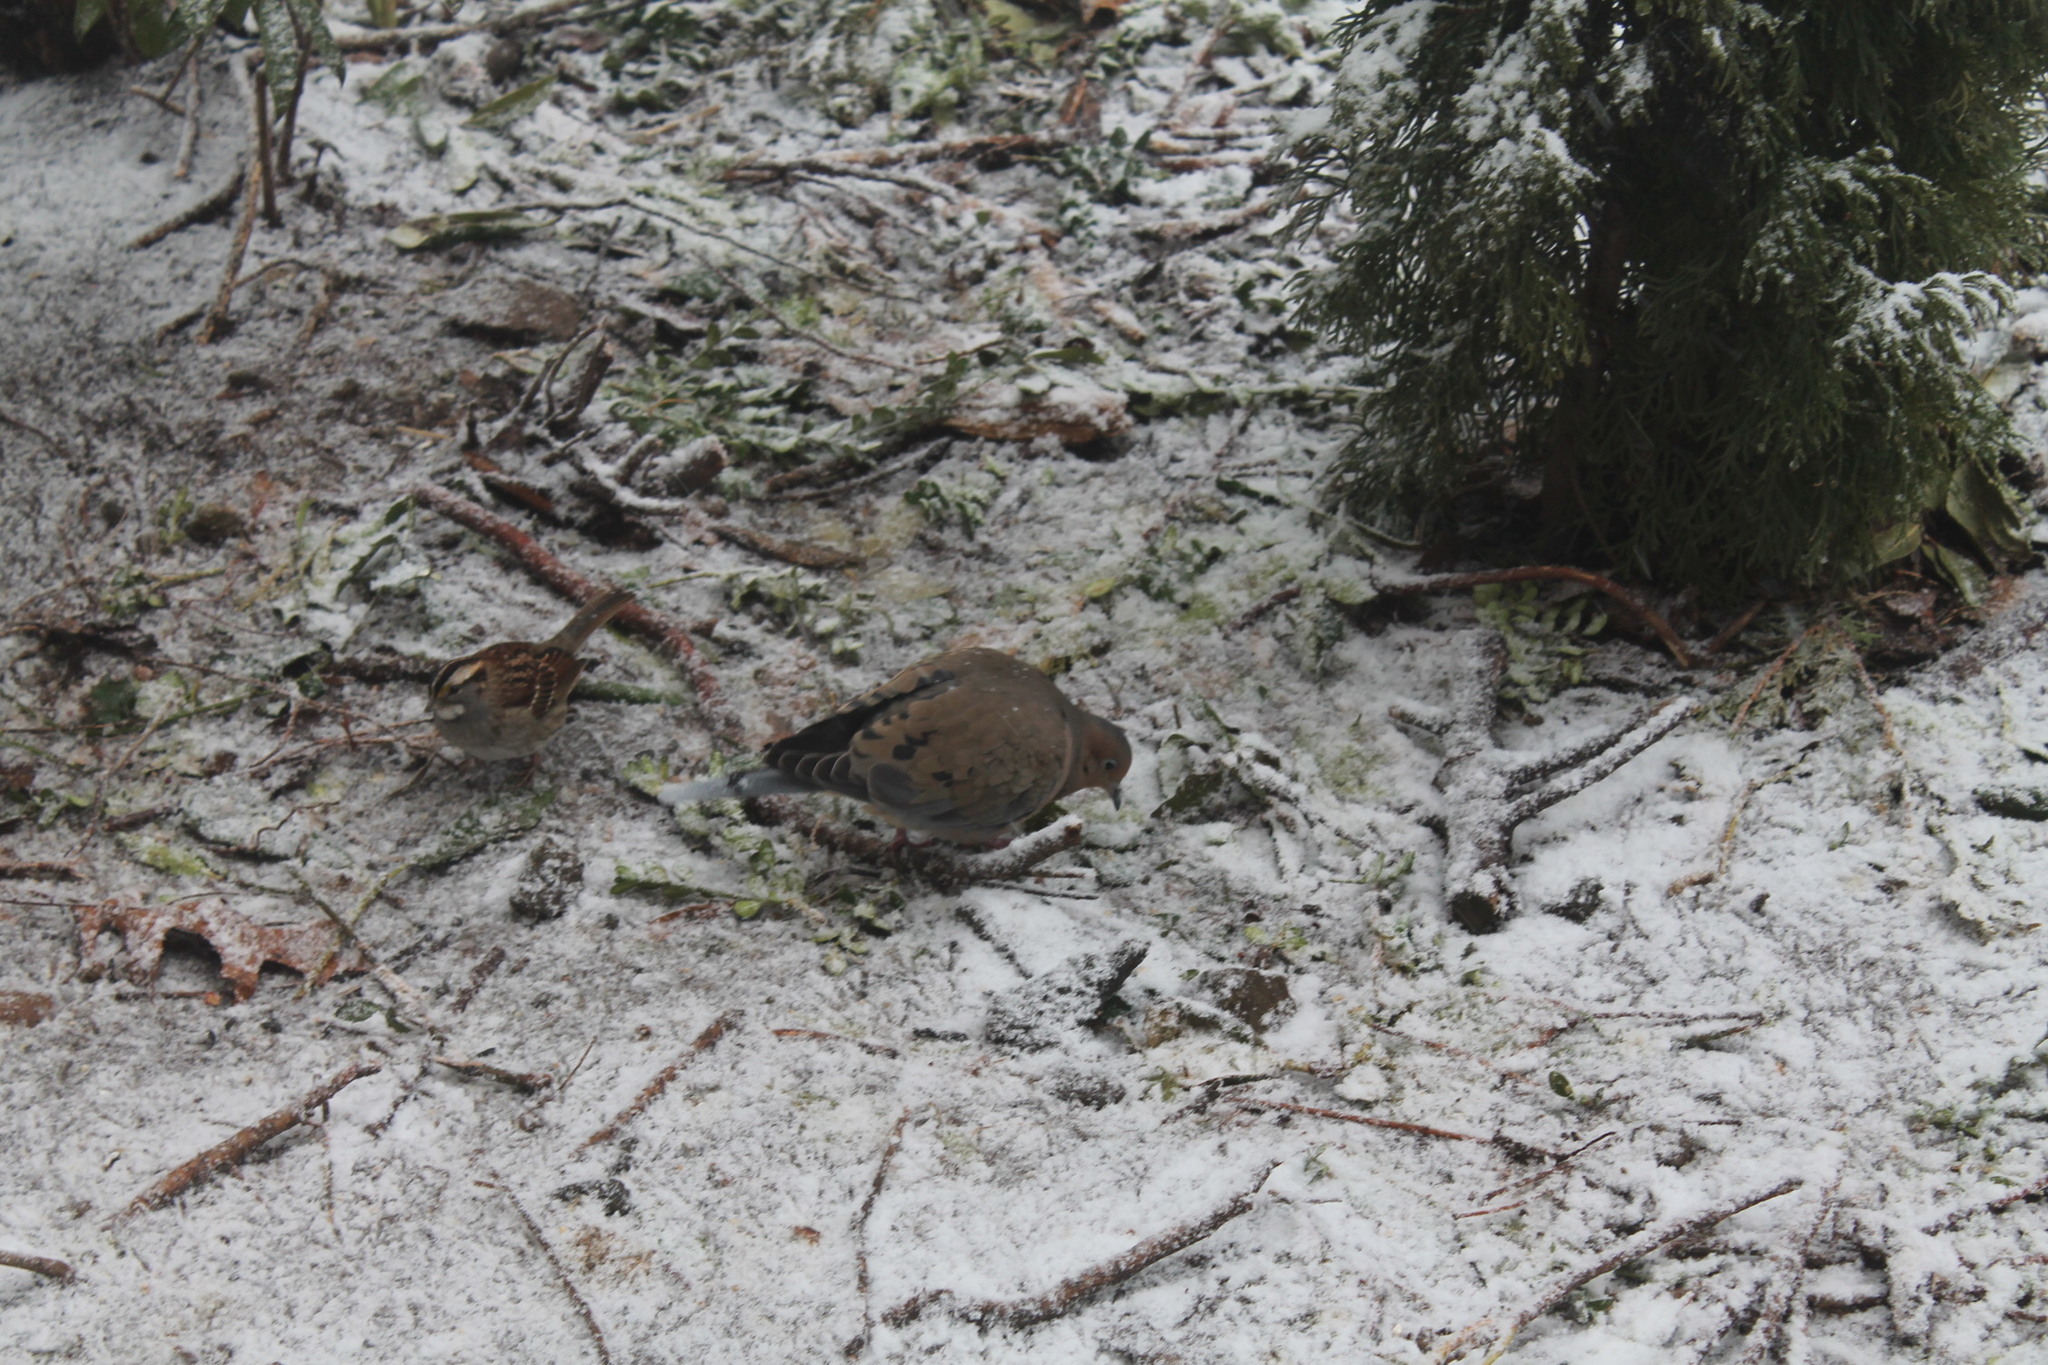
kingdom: Animalia
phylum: Chordata
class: Aves
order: Passeriformes
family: Passerellidae
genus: Zonotrichia
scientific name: Zonotrichia albicollis
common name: White-throated sparrow
